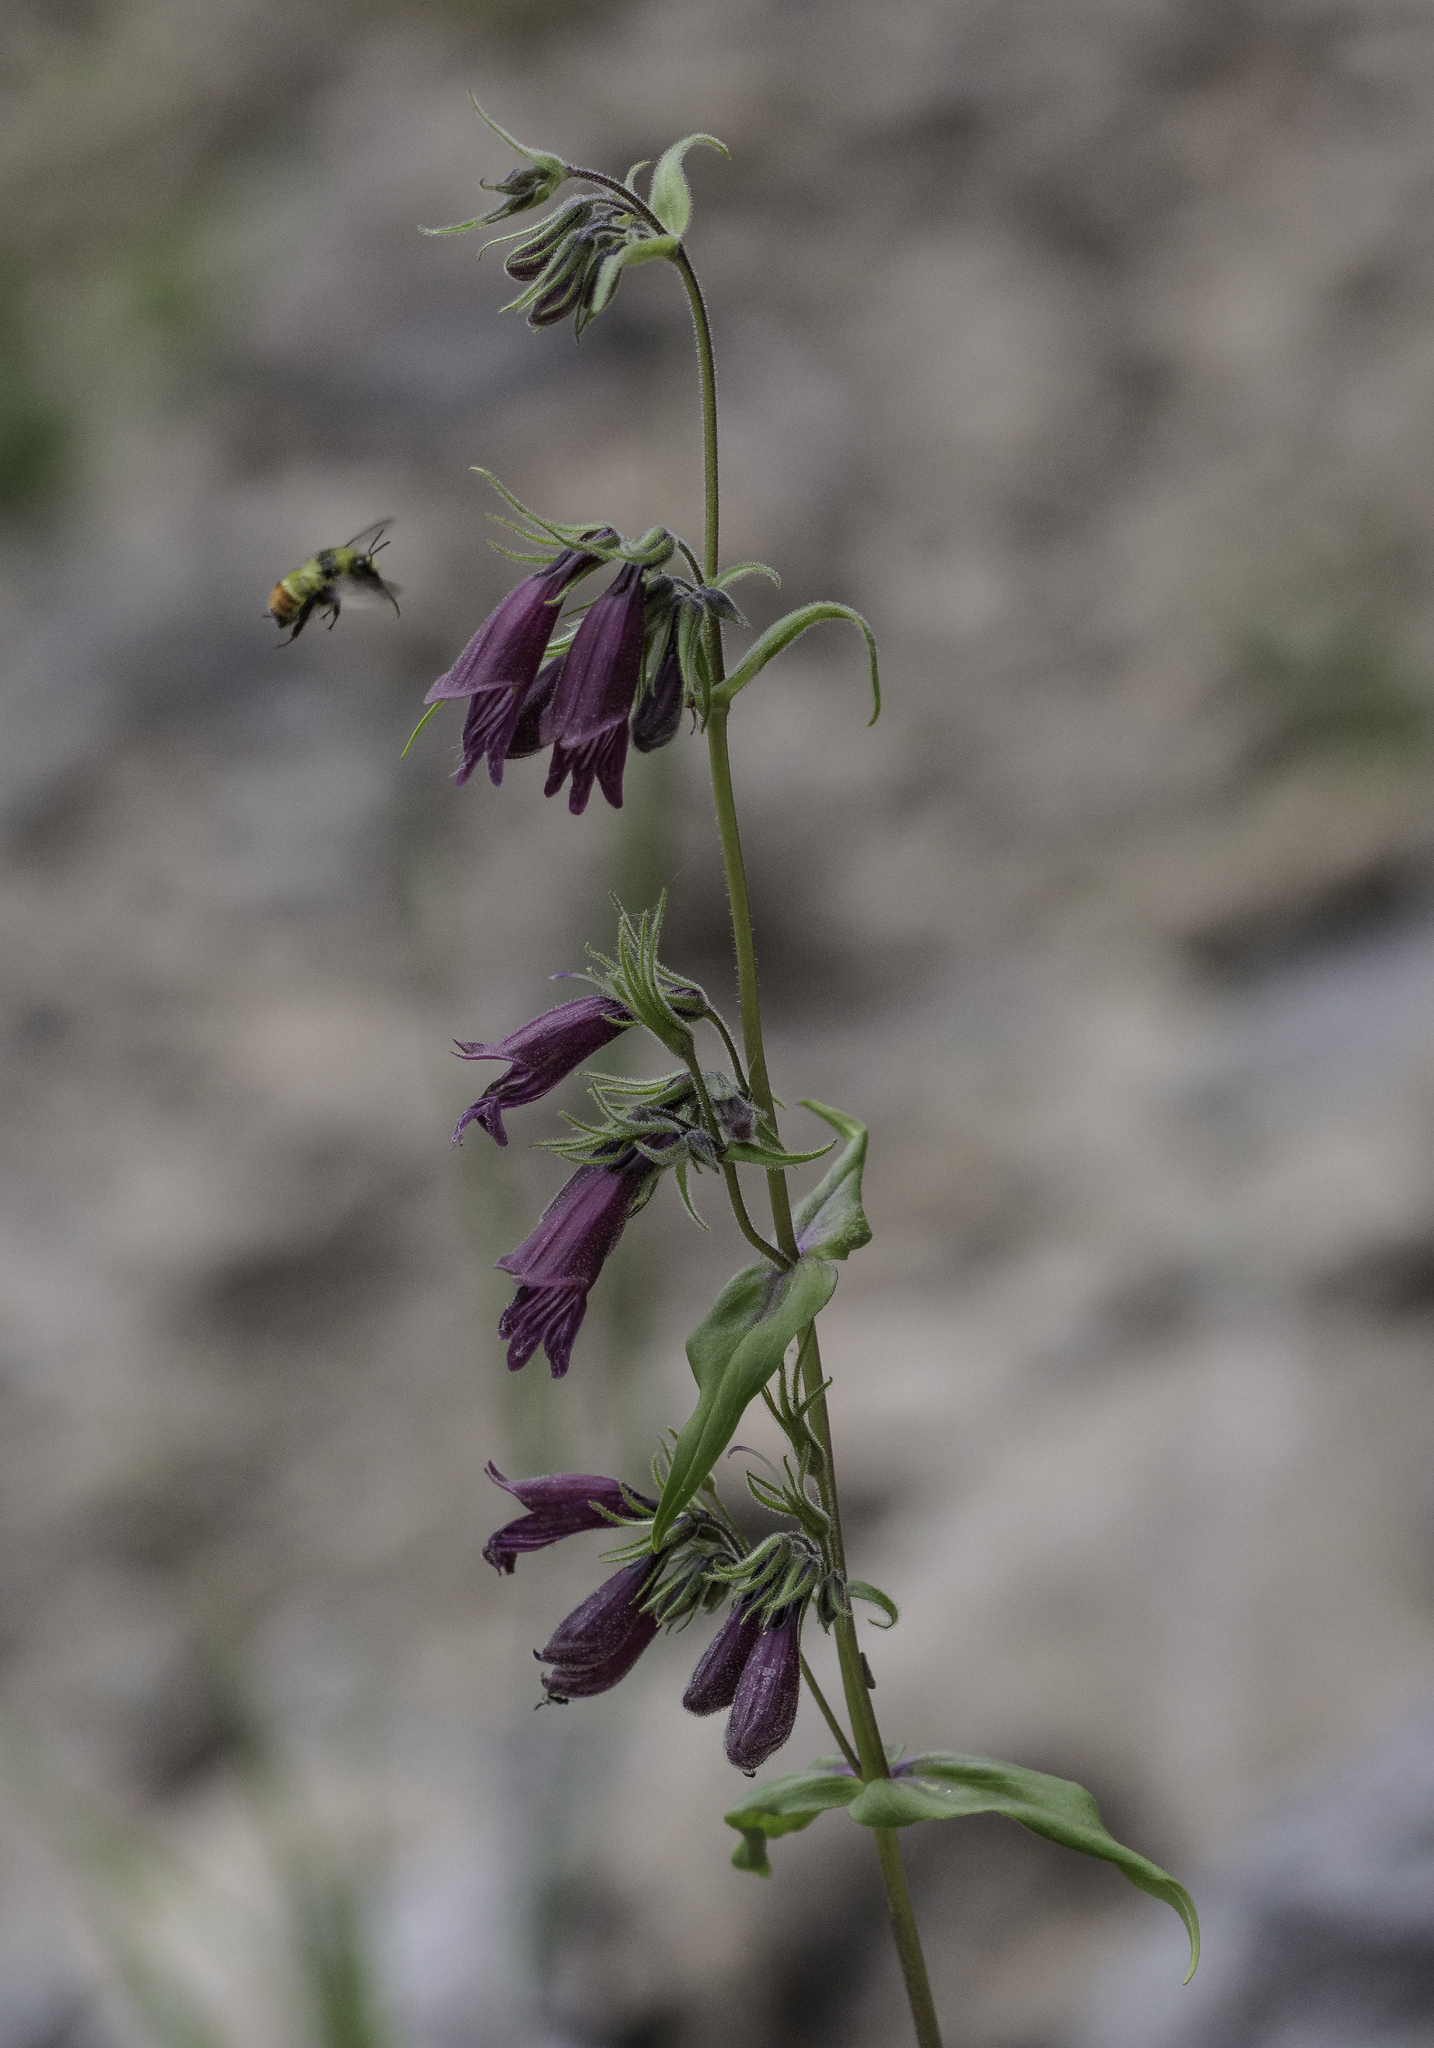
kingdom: Plantae
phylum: Tracheophyta
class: Magnoliopsida
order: Lamiales
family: Plantaginaceae
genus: Penstemon
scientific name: Penstemon whippleanus
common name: Whipple's penstemon
